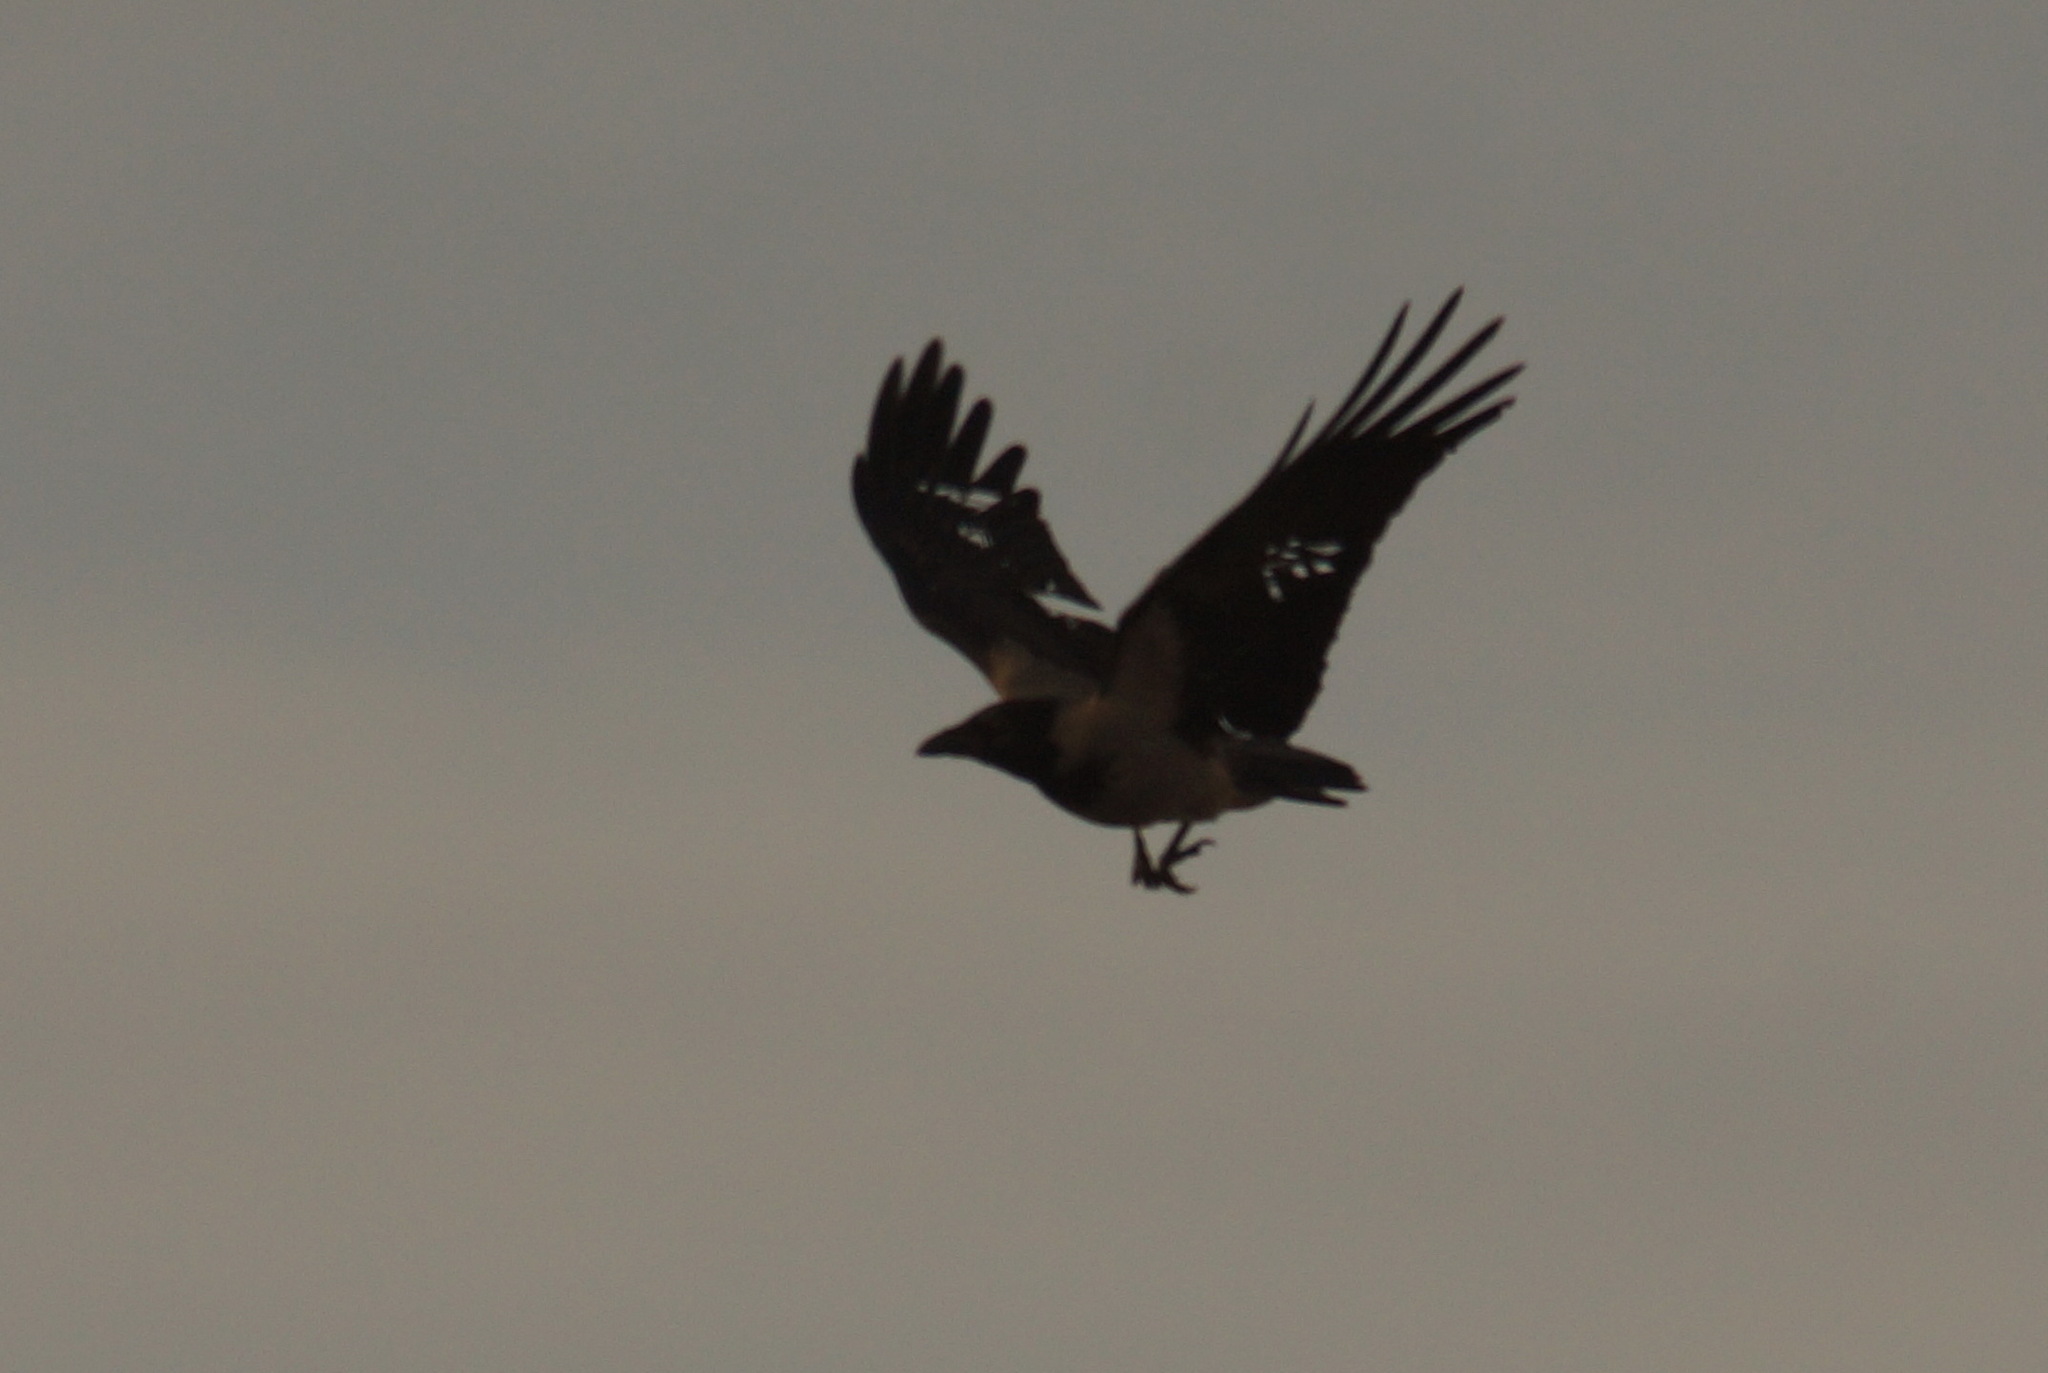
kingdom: Animalia
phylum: Chordata
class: Aves
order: Passeriformes
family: Corvidae
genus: Corvus
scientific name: Corvus cornix
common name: Hooded crow
